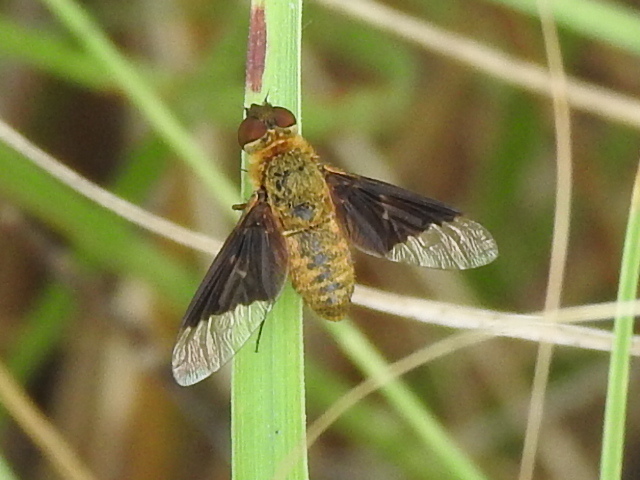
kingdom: Animalia
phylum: Arthropoda
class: Insecta
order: Diptera
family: Bombyliidae
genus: Chrysanthrax
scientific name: Chrysanthrax cypris
